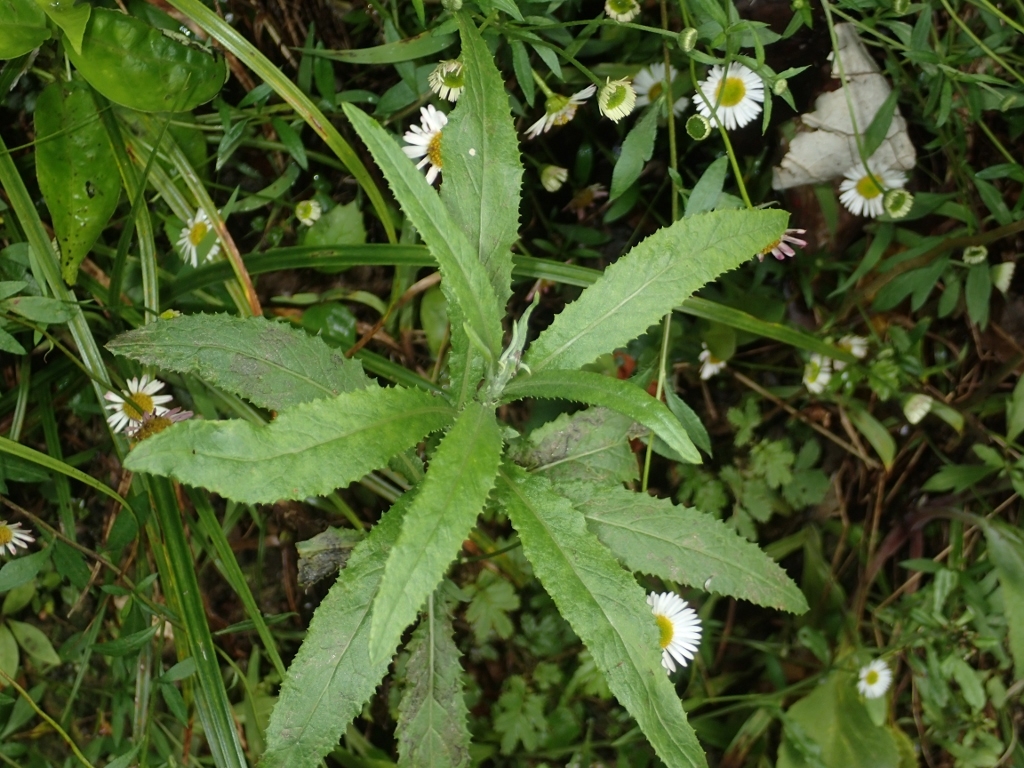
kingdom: Plantae
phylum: Tracheophyta
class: Magnoliopsida
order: Asterales
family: Asteraceae
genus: Senecio
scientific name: Senecio minimus
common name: Toothed fireweed
